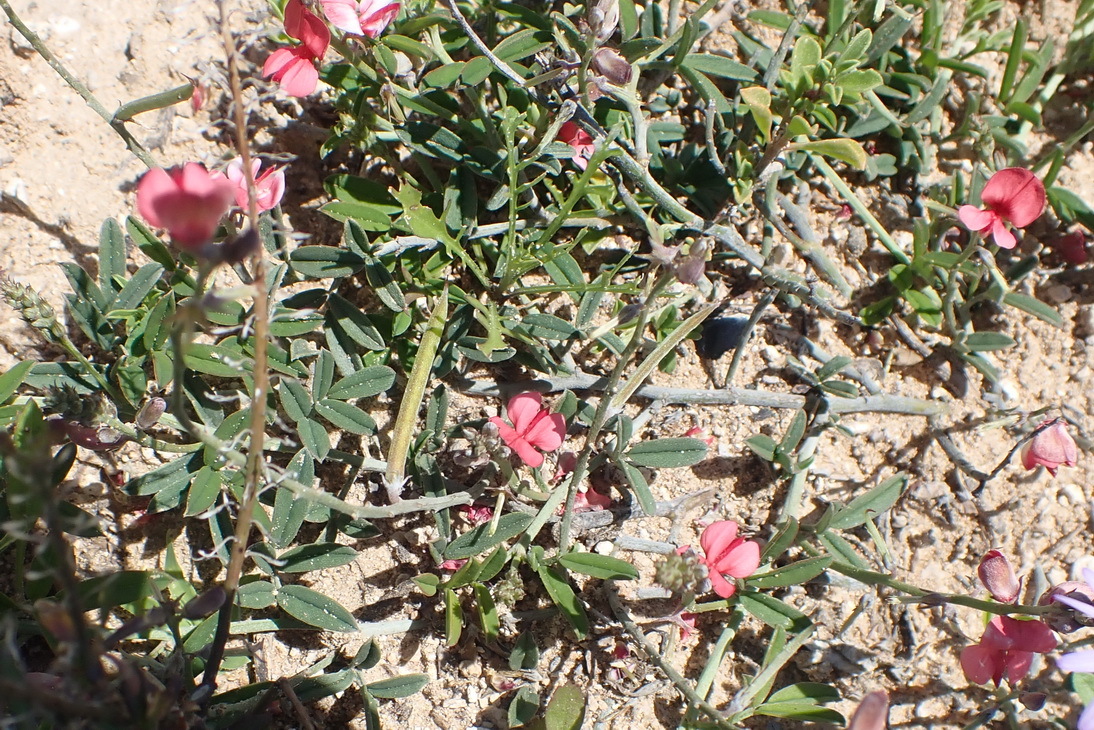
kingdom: Plantae
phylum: Tracheophyta
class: Magnoliopsida
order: Fabales
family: Fabaceae
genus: Indigofera
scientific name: Indigofera disticha
